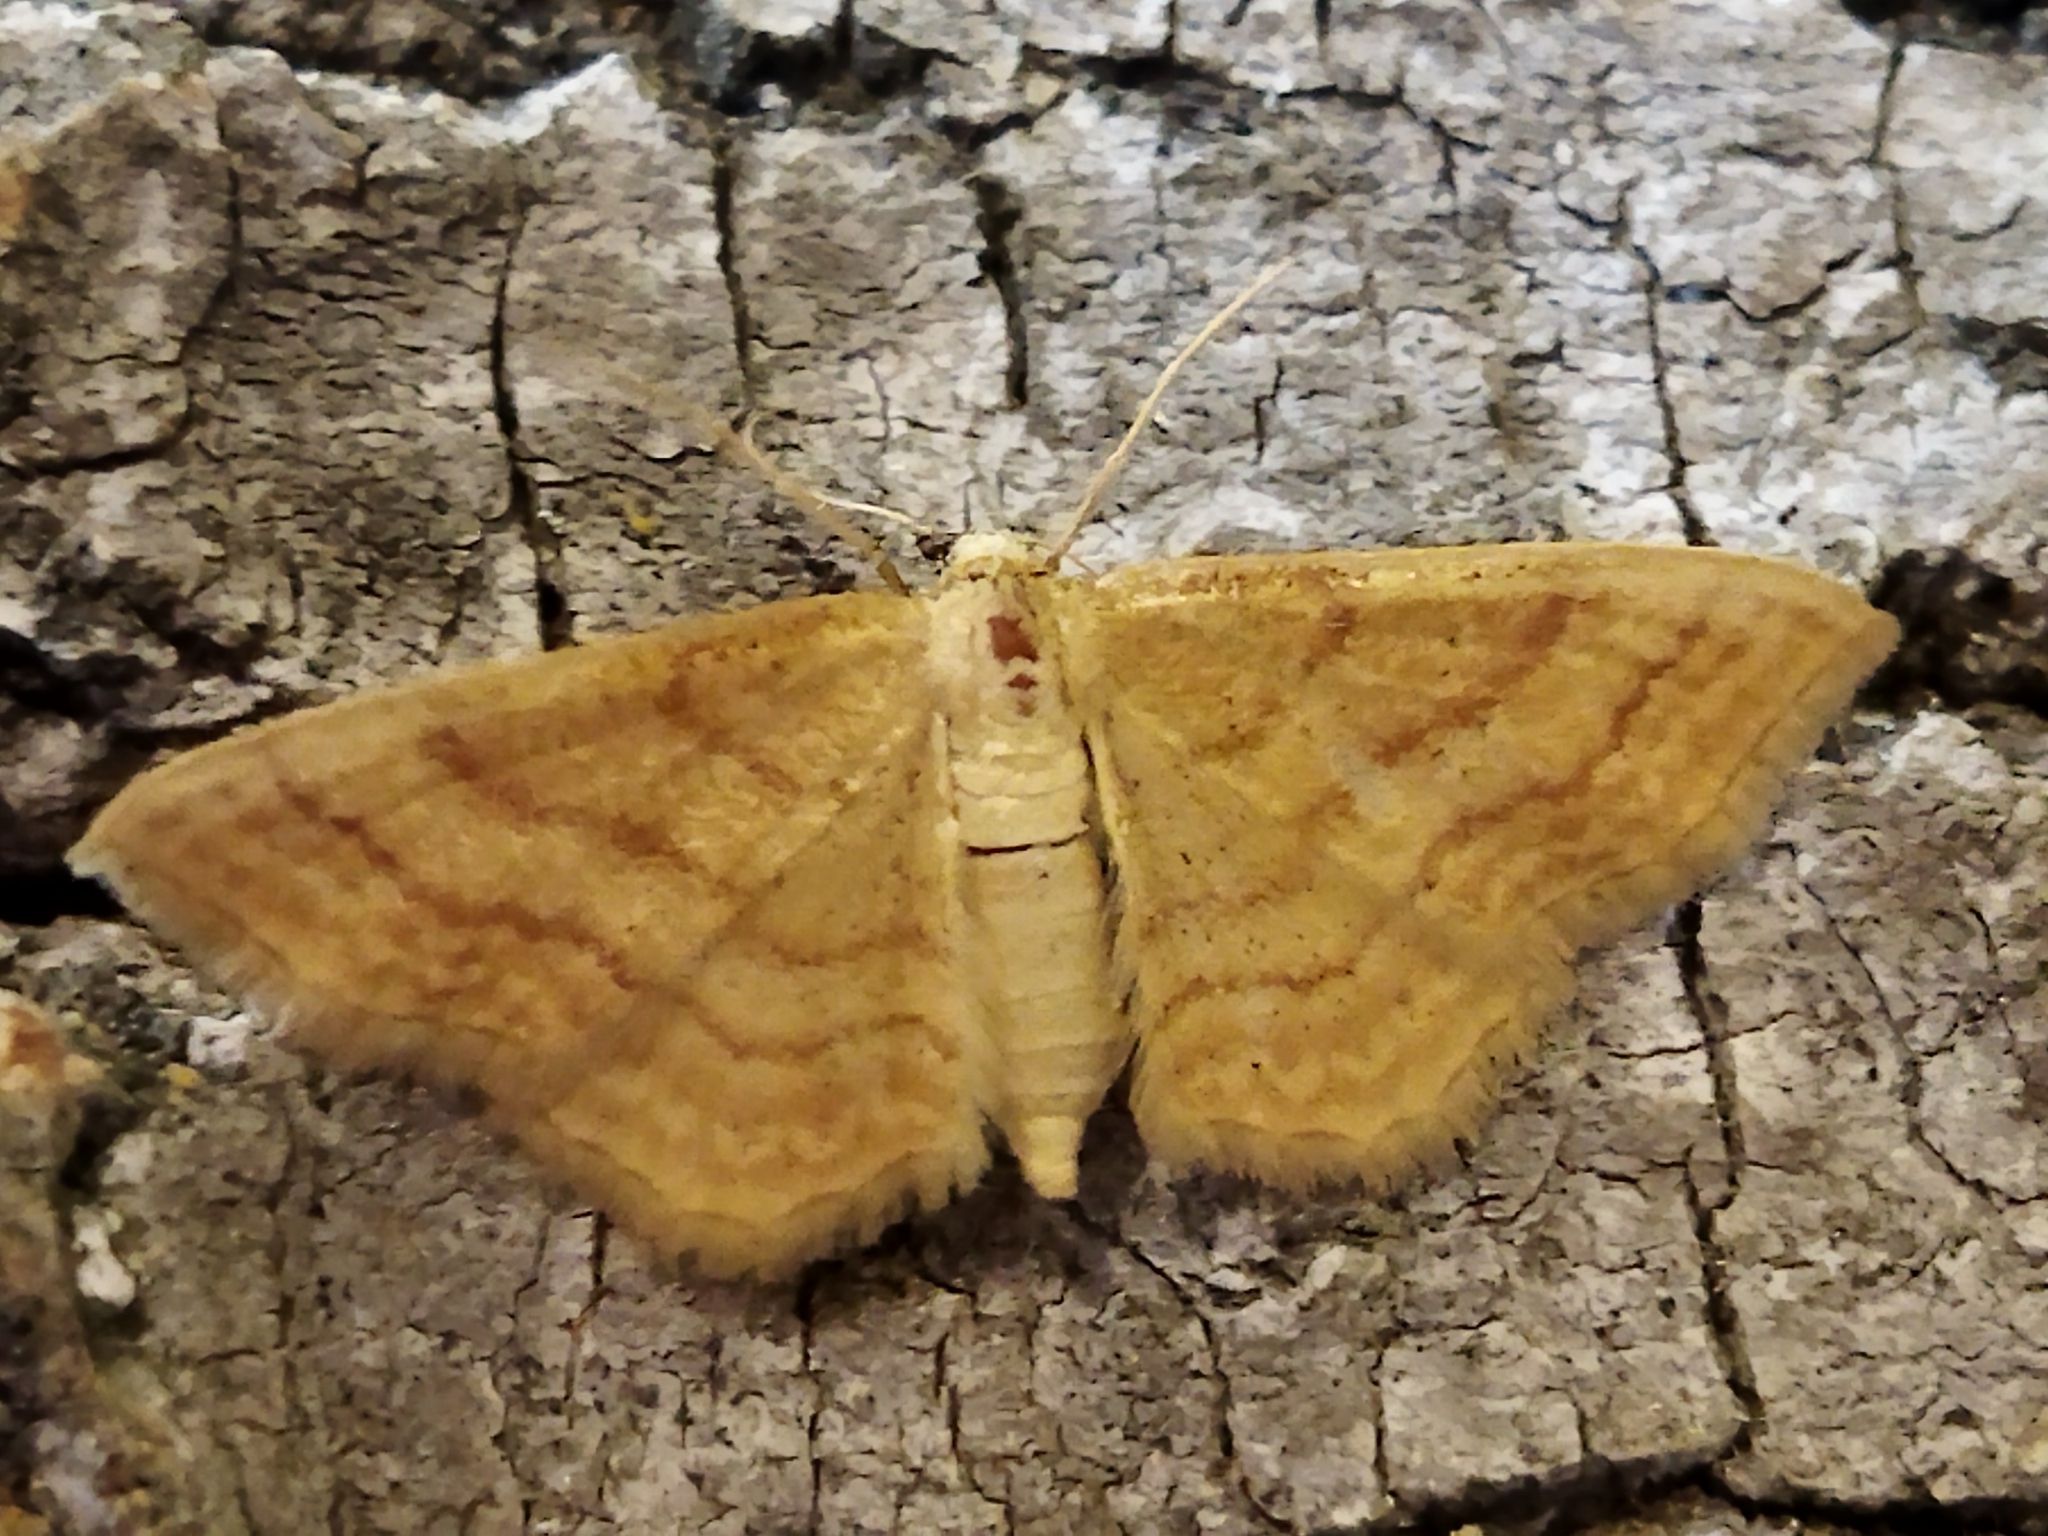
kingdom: Animalia
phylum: Arthropoda
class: Insecta
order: Lepidoptera
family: Geometridae
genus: Idaea
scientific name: Idaea rufaria
